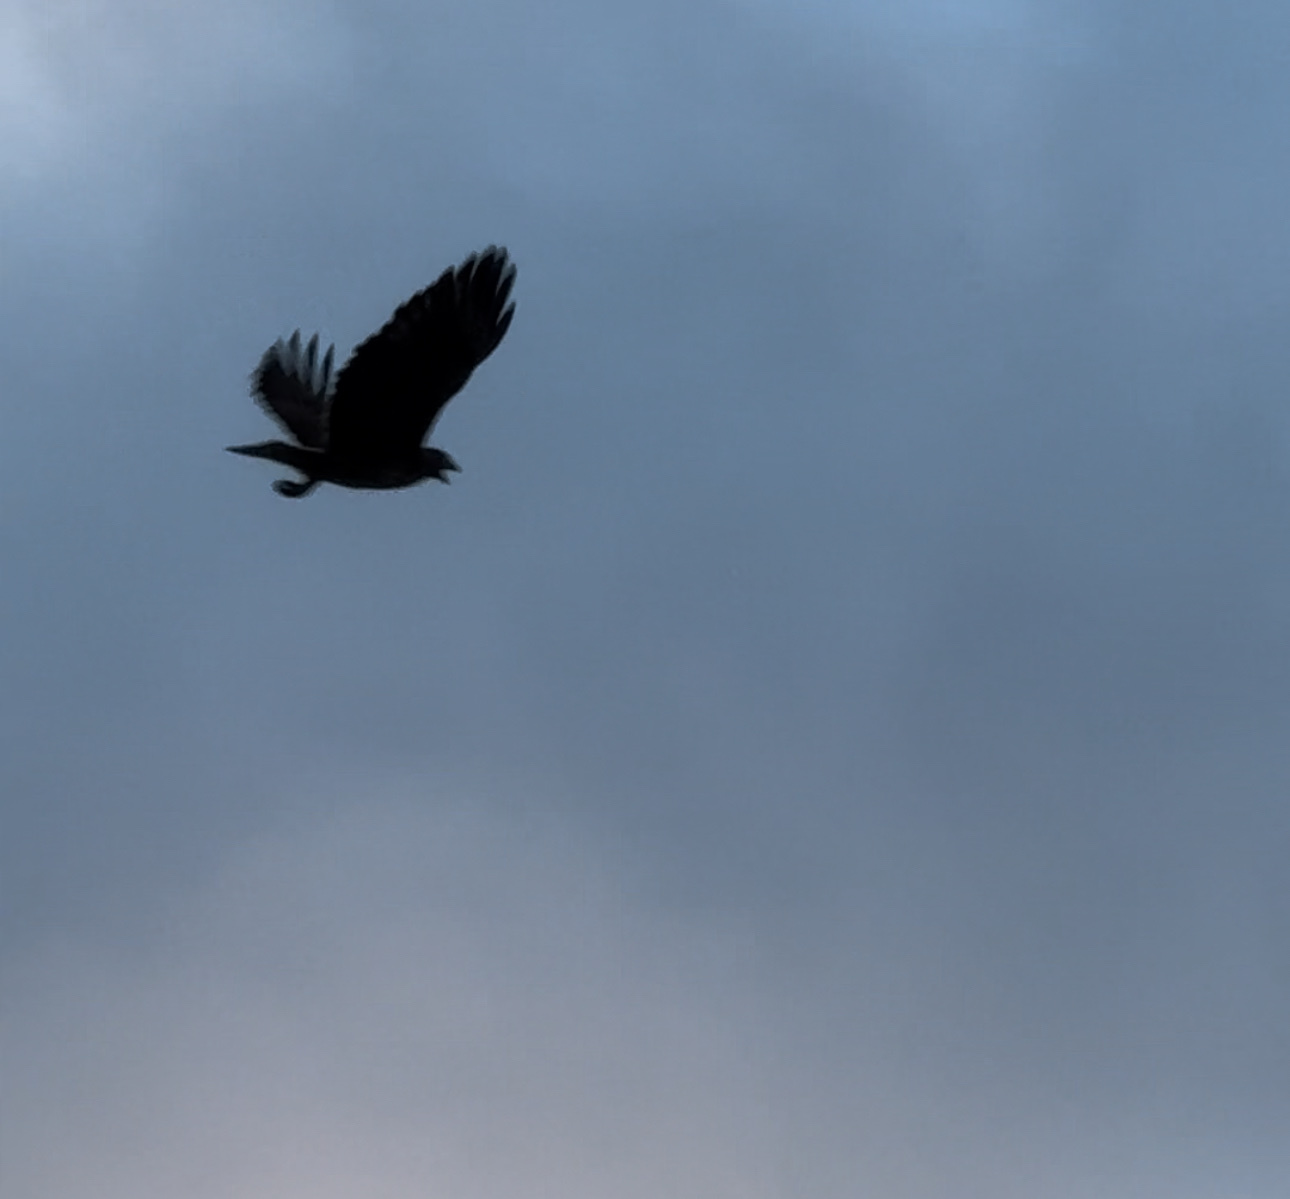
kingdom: Animalia
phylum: Chordata
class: Aves
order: Accipitriformes
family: Accipitridae
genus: Buteo
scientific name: Buteo jamaicensis
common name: Red-tailed hawk
